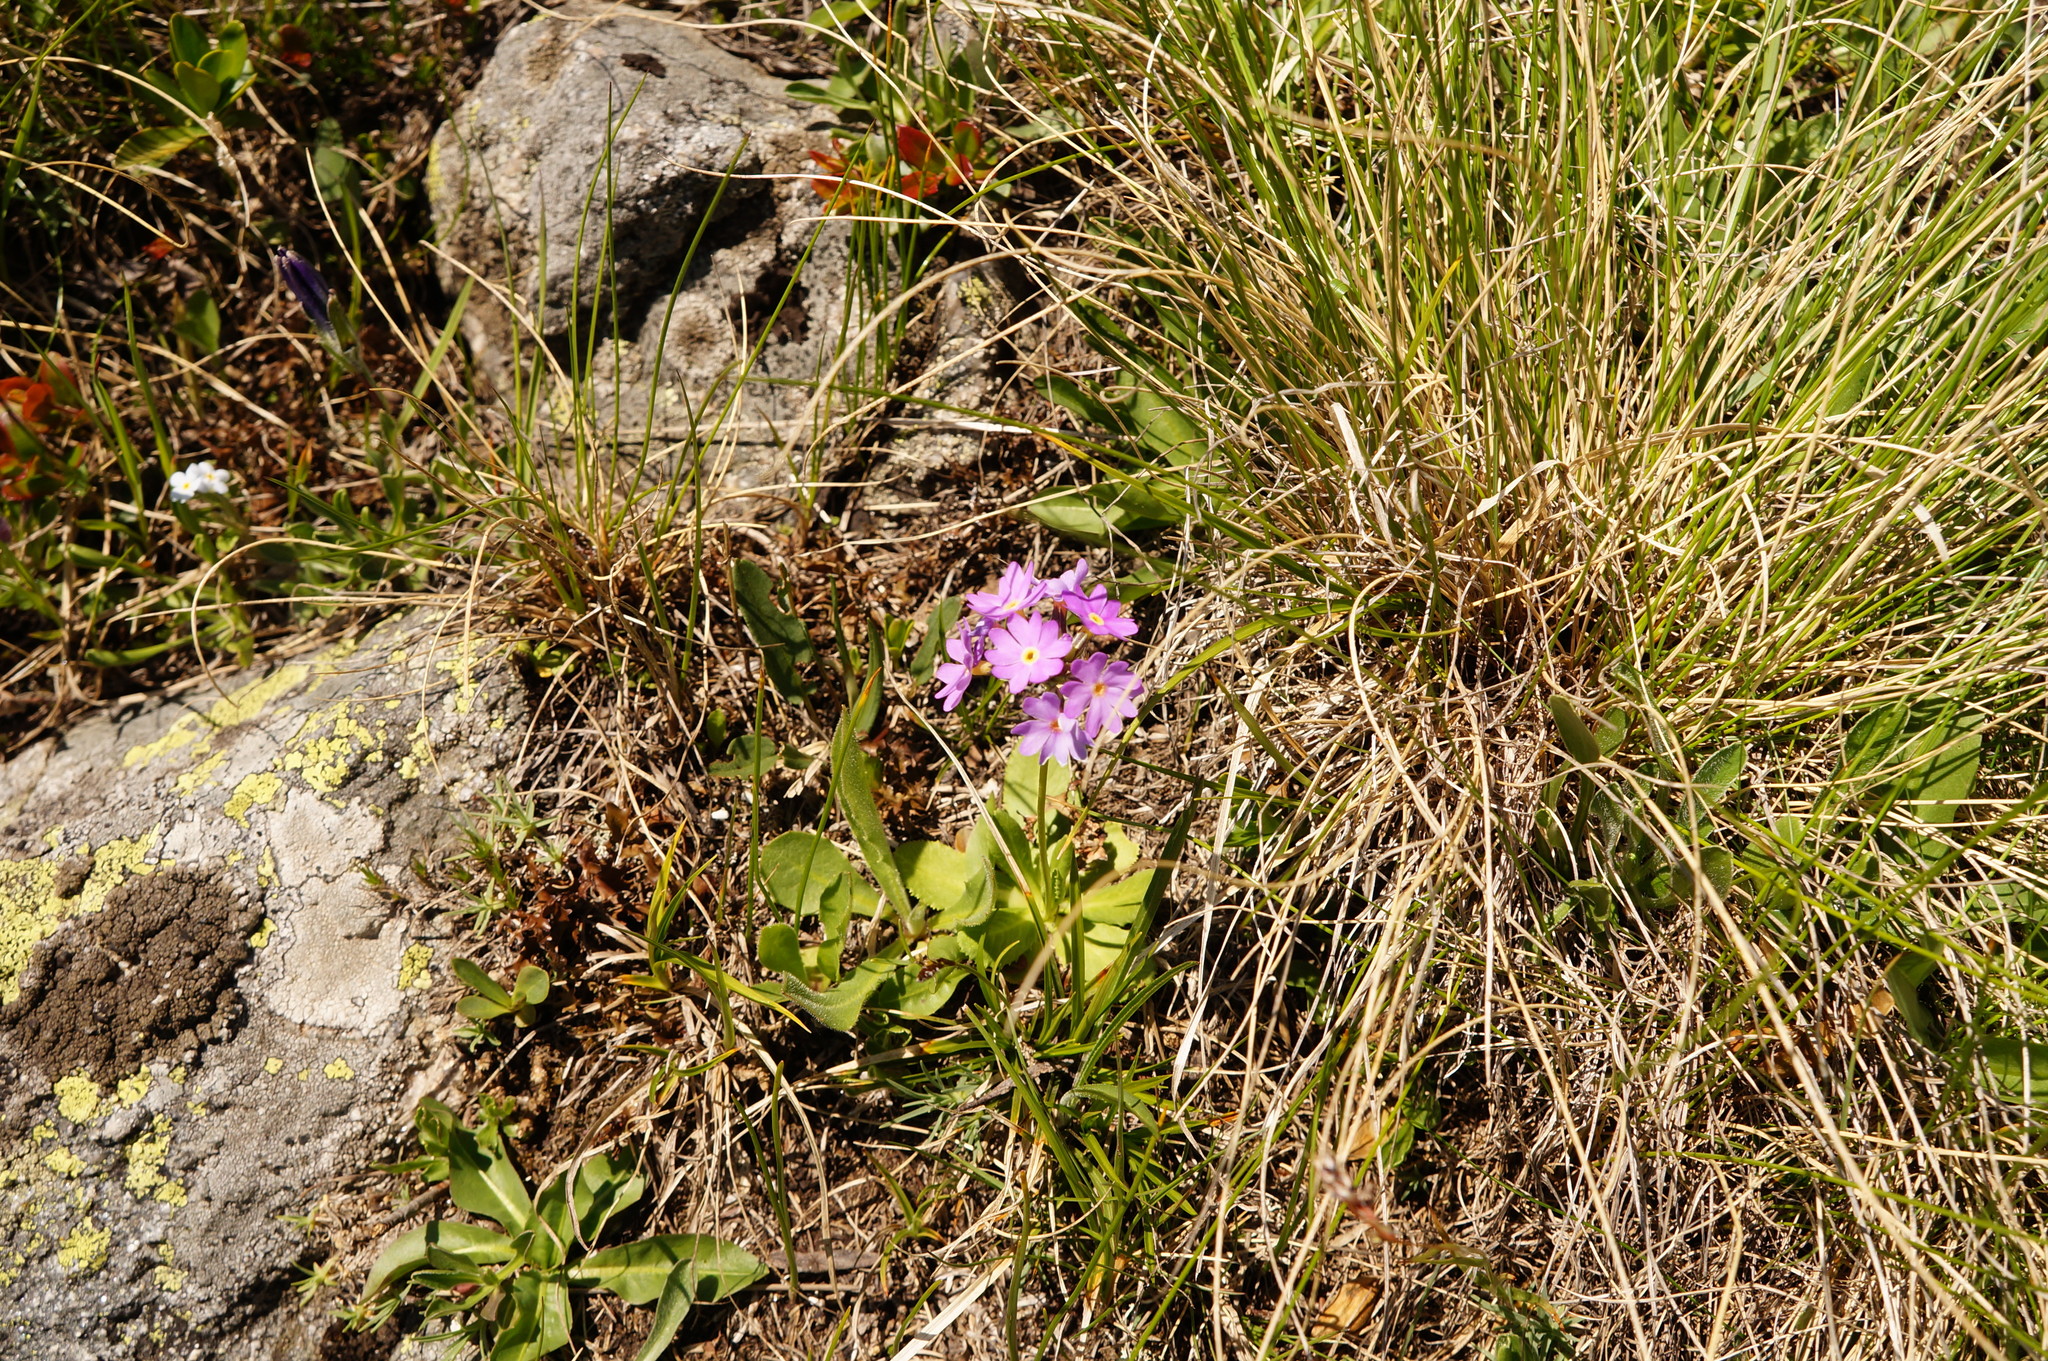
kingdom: Plantae
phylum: Tracheophyta
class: Magnoliopsida
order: Ericales
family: Primulaceae
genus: Primula
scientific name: Primula algida
